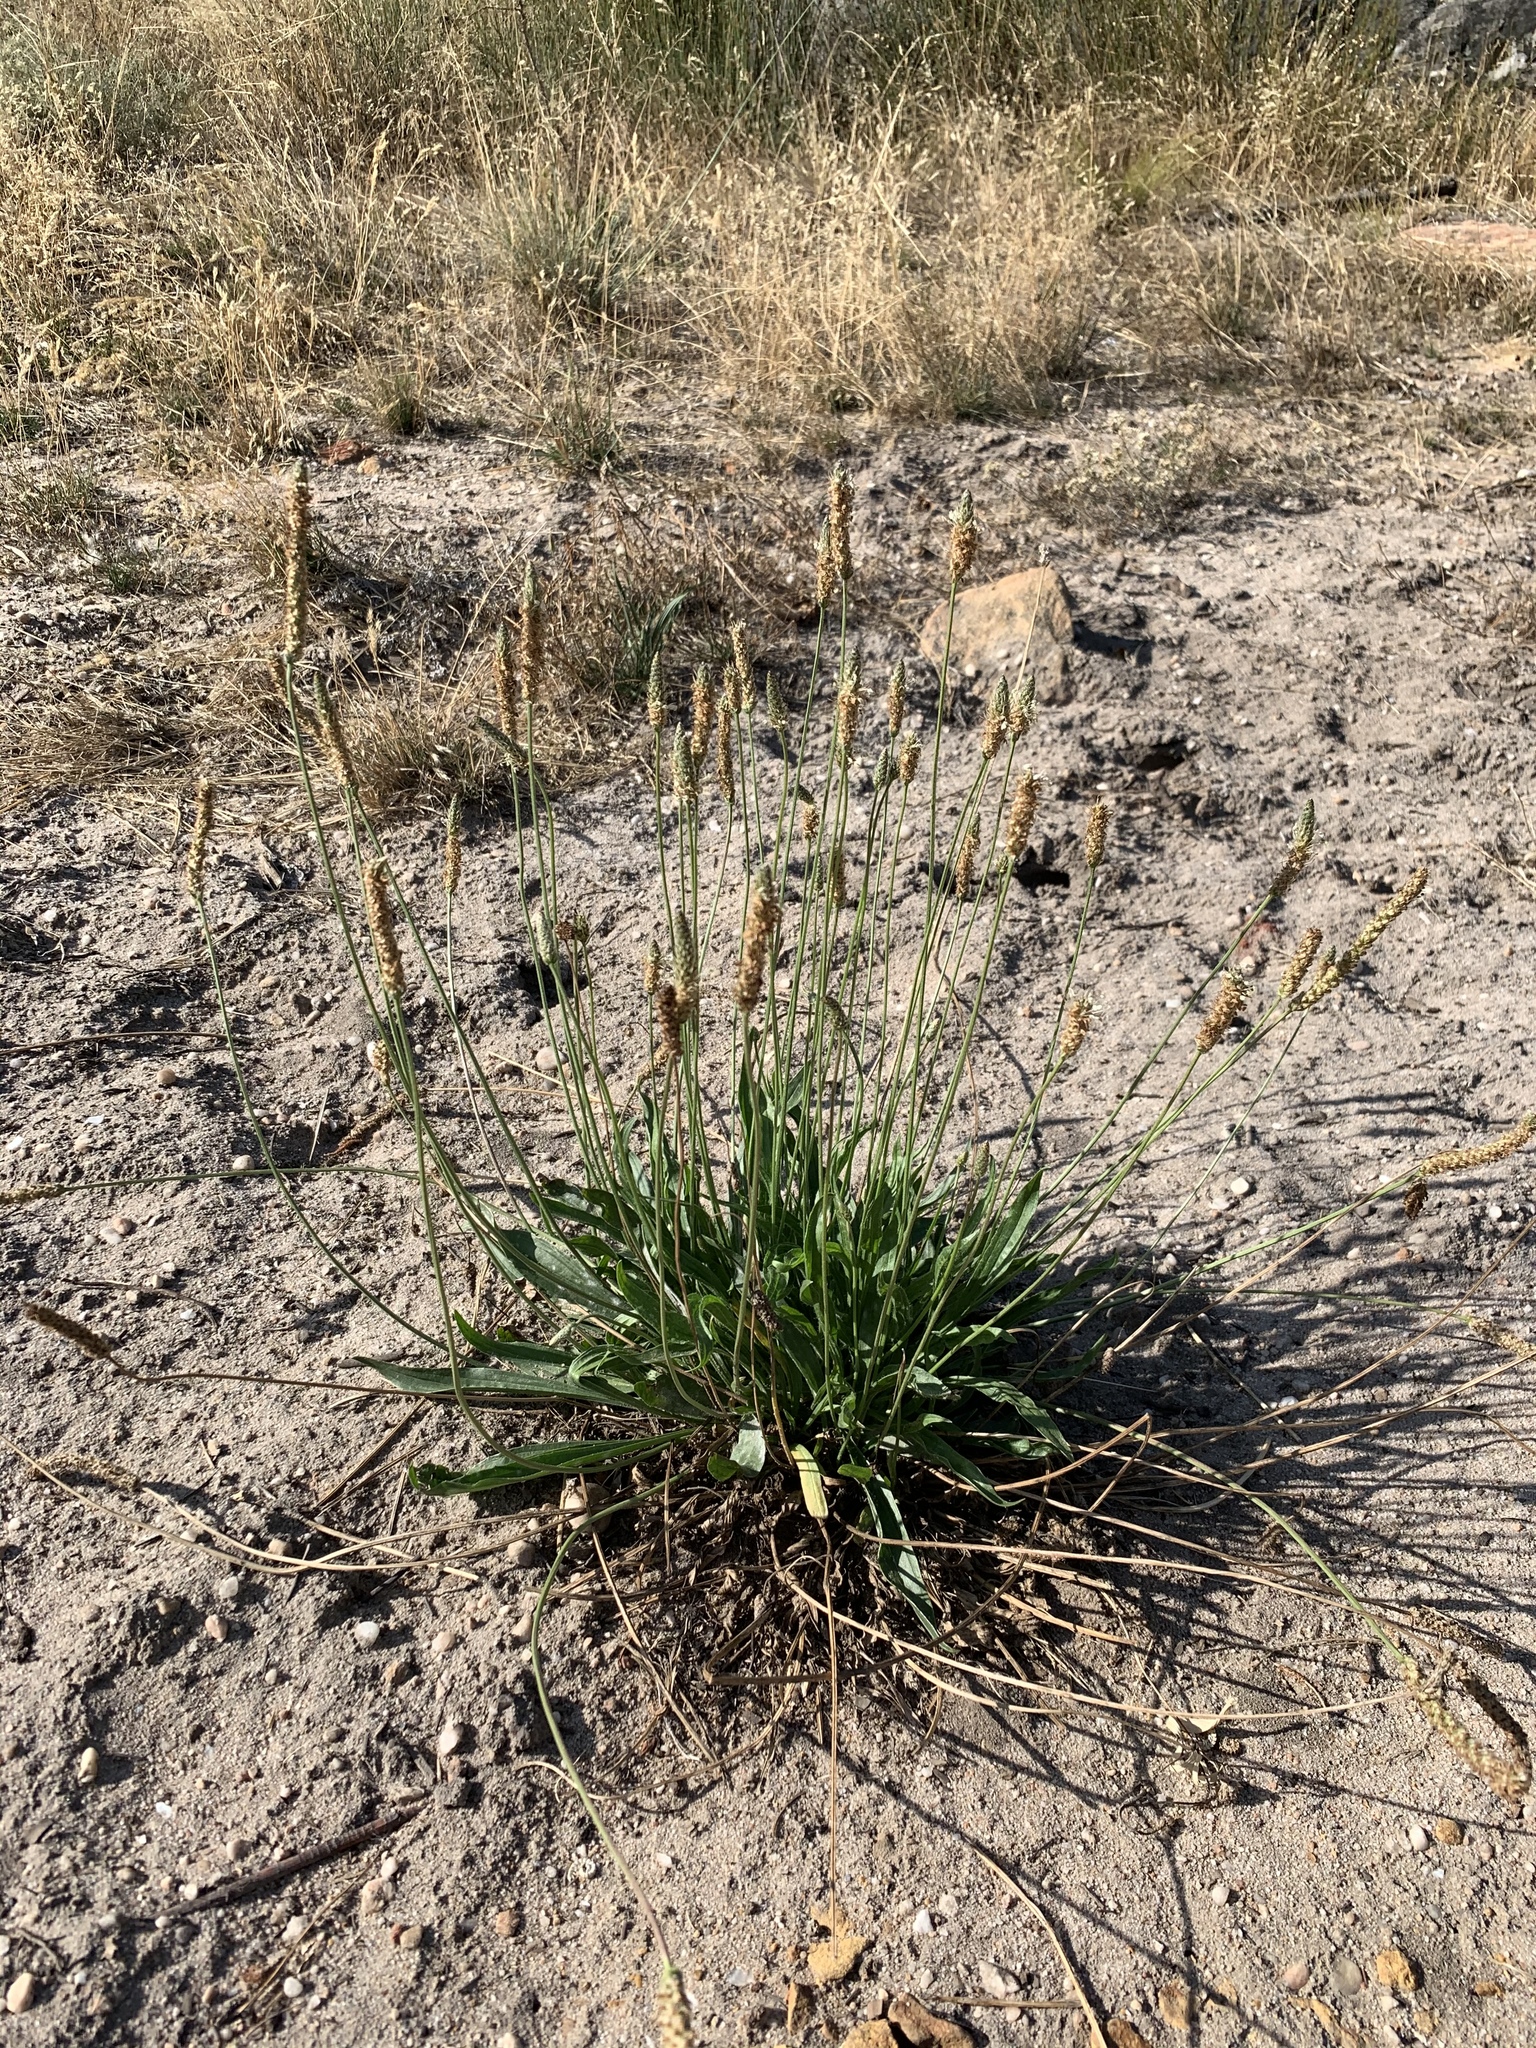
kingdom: Plantae
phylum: Tracheophyta
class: Magnoliopsida
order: Lamiales
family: Plantaginaceae
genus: Plantago
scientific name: Plantago lanceolata
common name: Ribwort plantain
